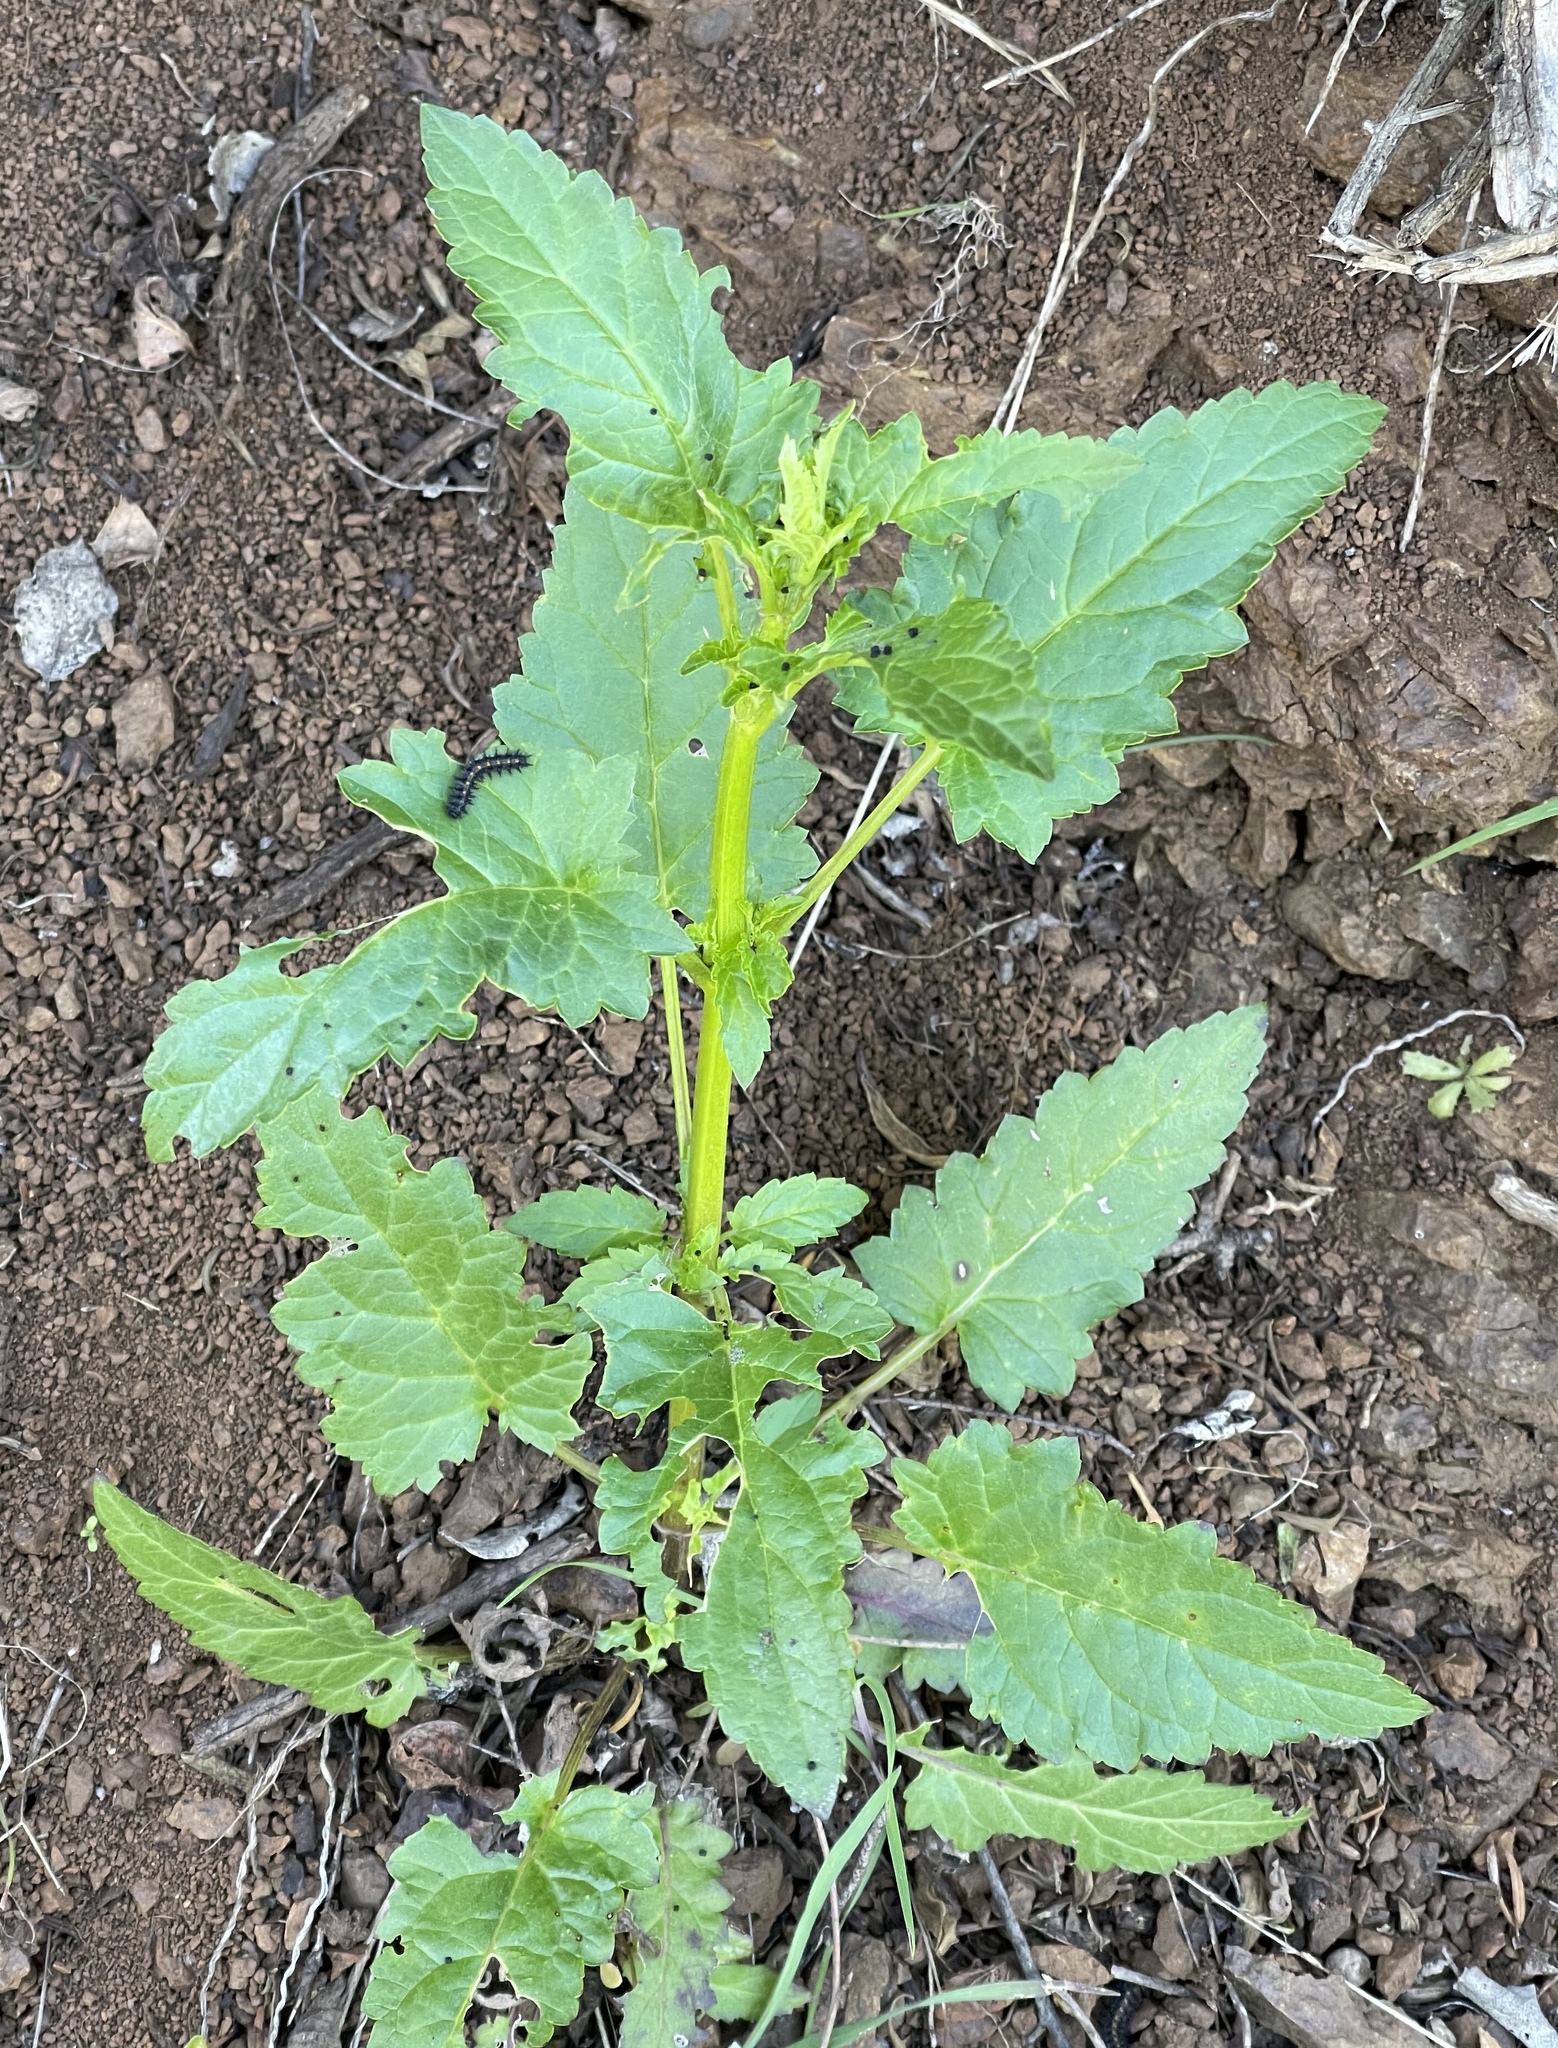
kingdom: Plantae
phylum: Tracheophyta
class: Magnoliopsida
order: Lamiales
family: Scrophulariaceae
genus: Scrophularia
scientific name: Scrophularia californica
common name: California figwort
